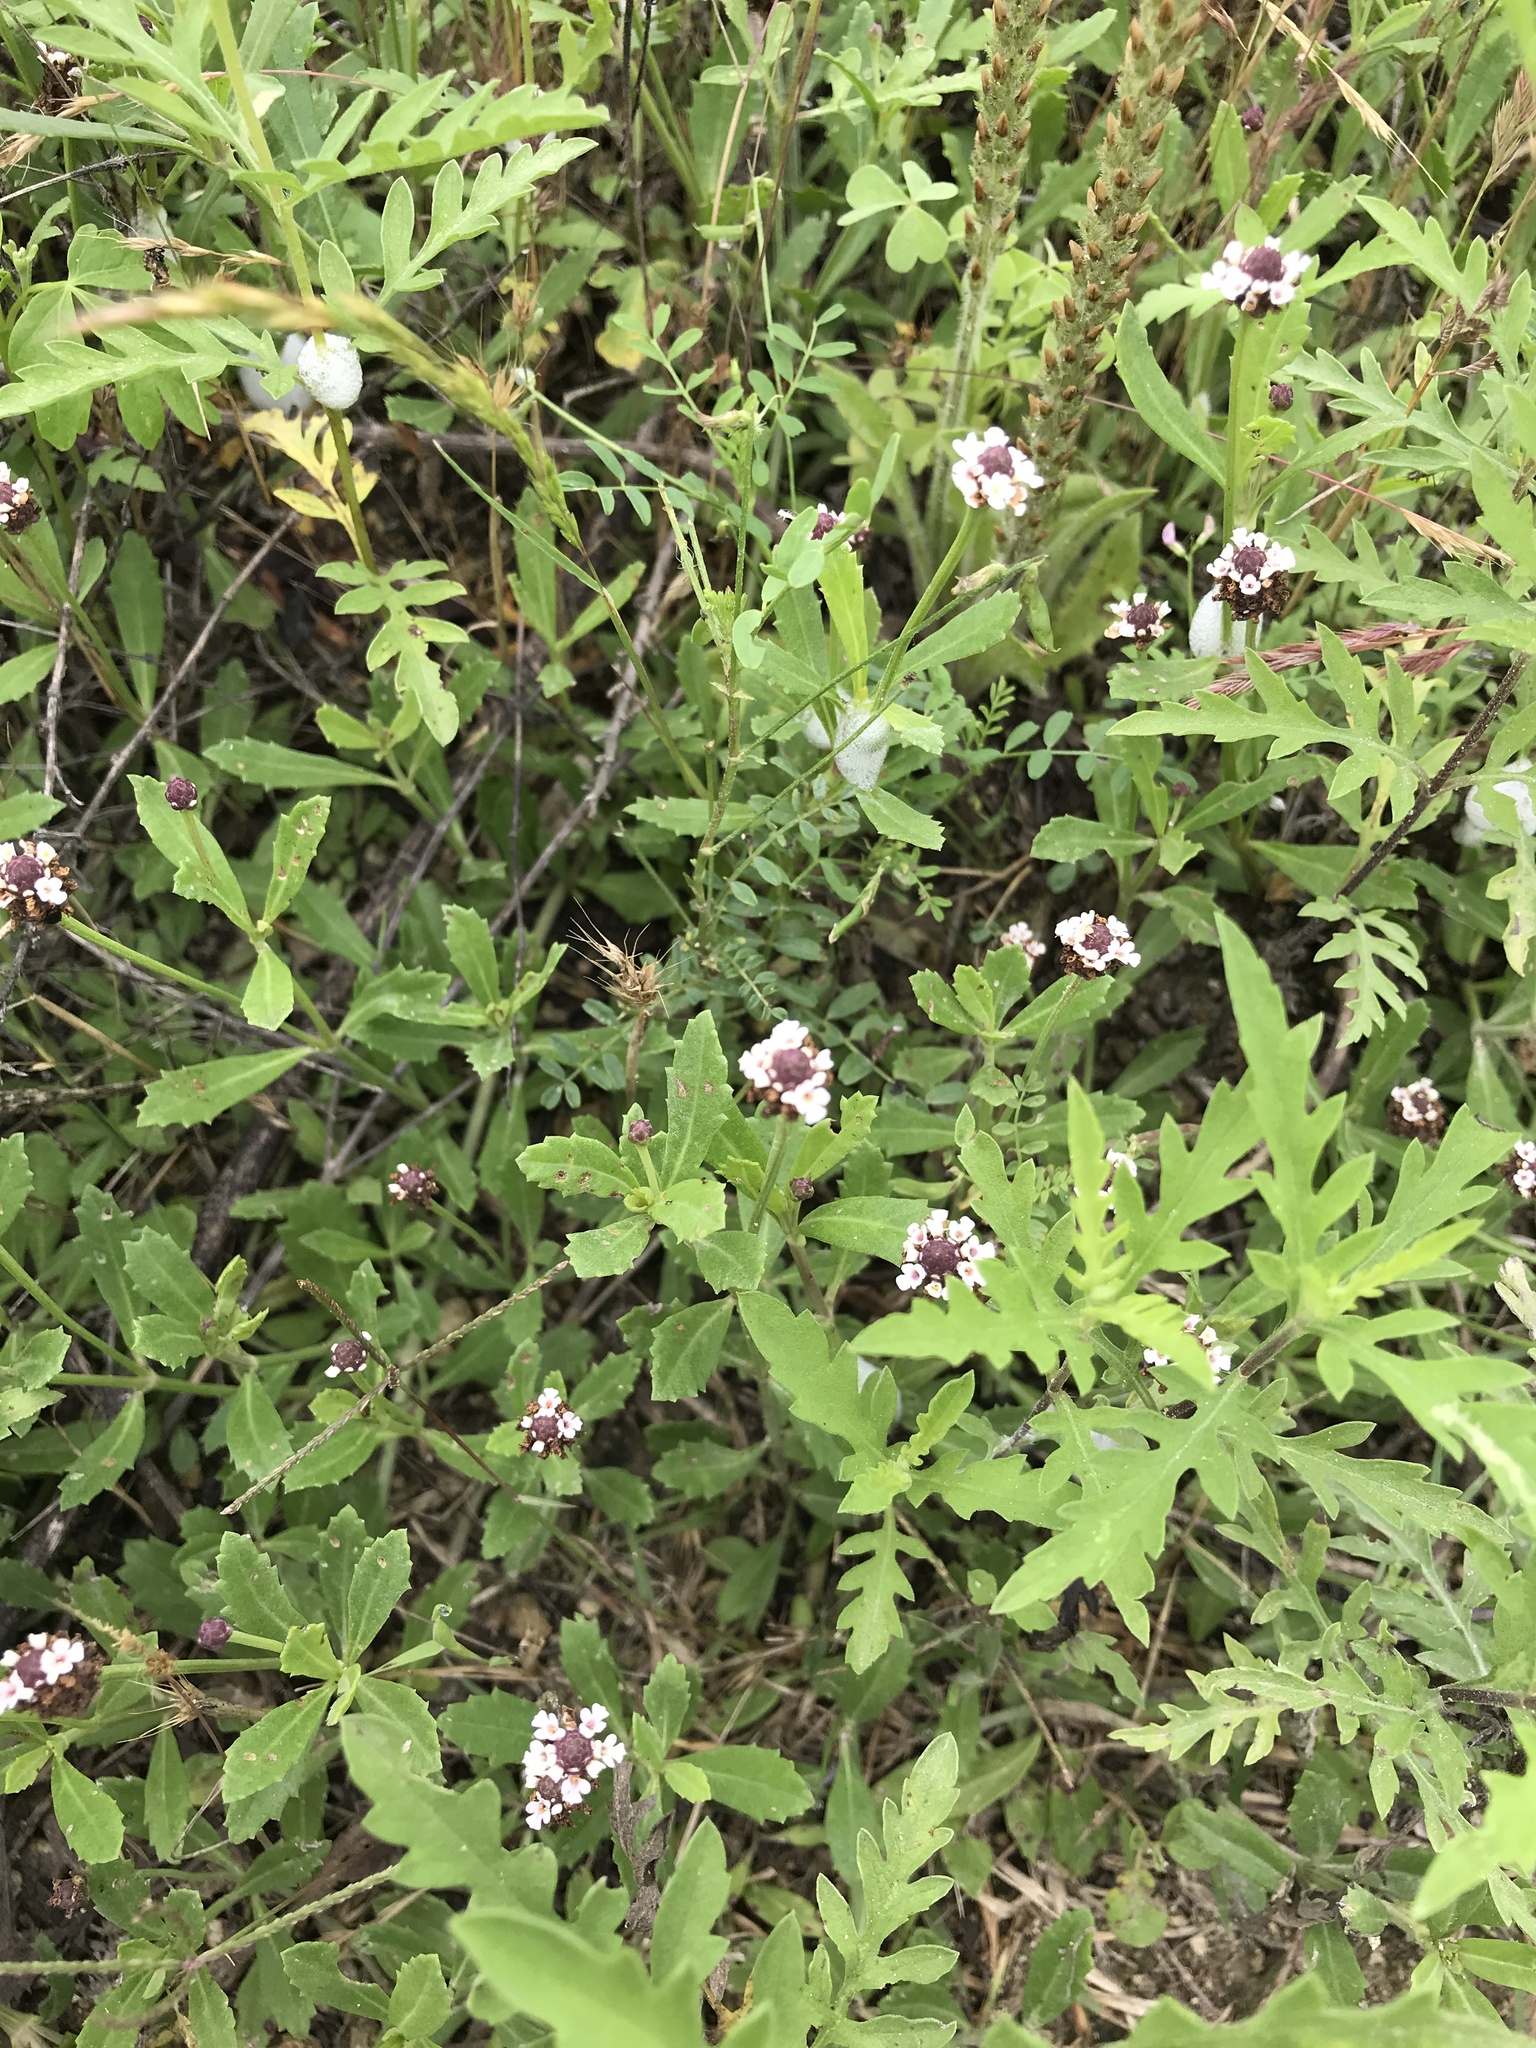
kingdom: Plantae
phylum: Tracheophyta
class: Magnoliopsida
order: Lamiales
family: Verbenaceae
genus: Phyla
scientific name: Phyla nodiflora
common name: Frogfruit
